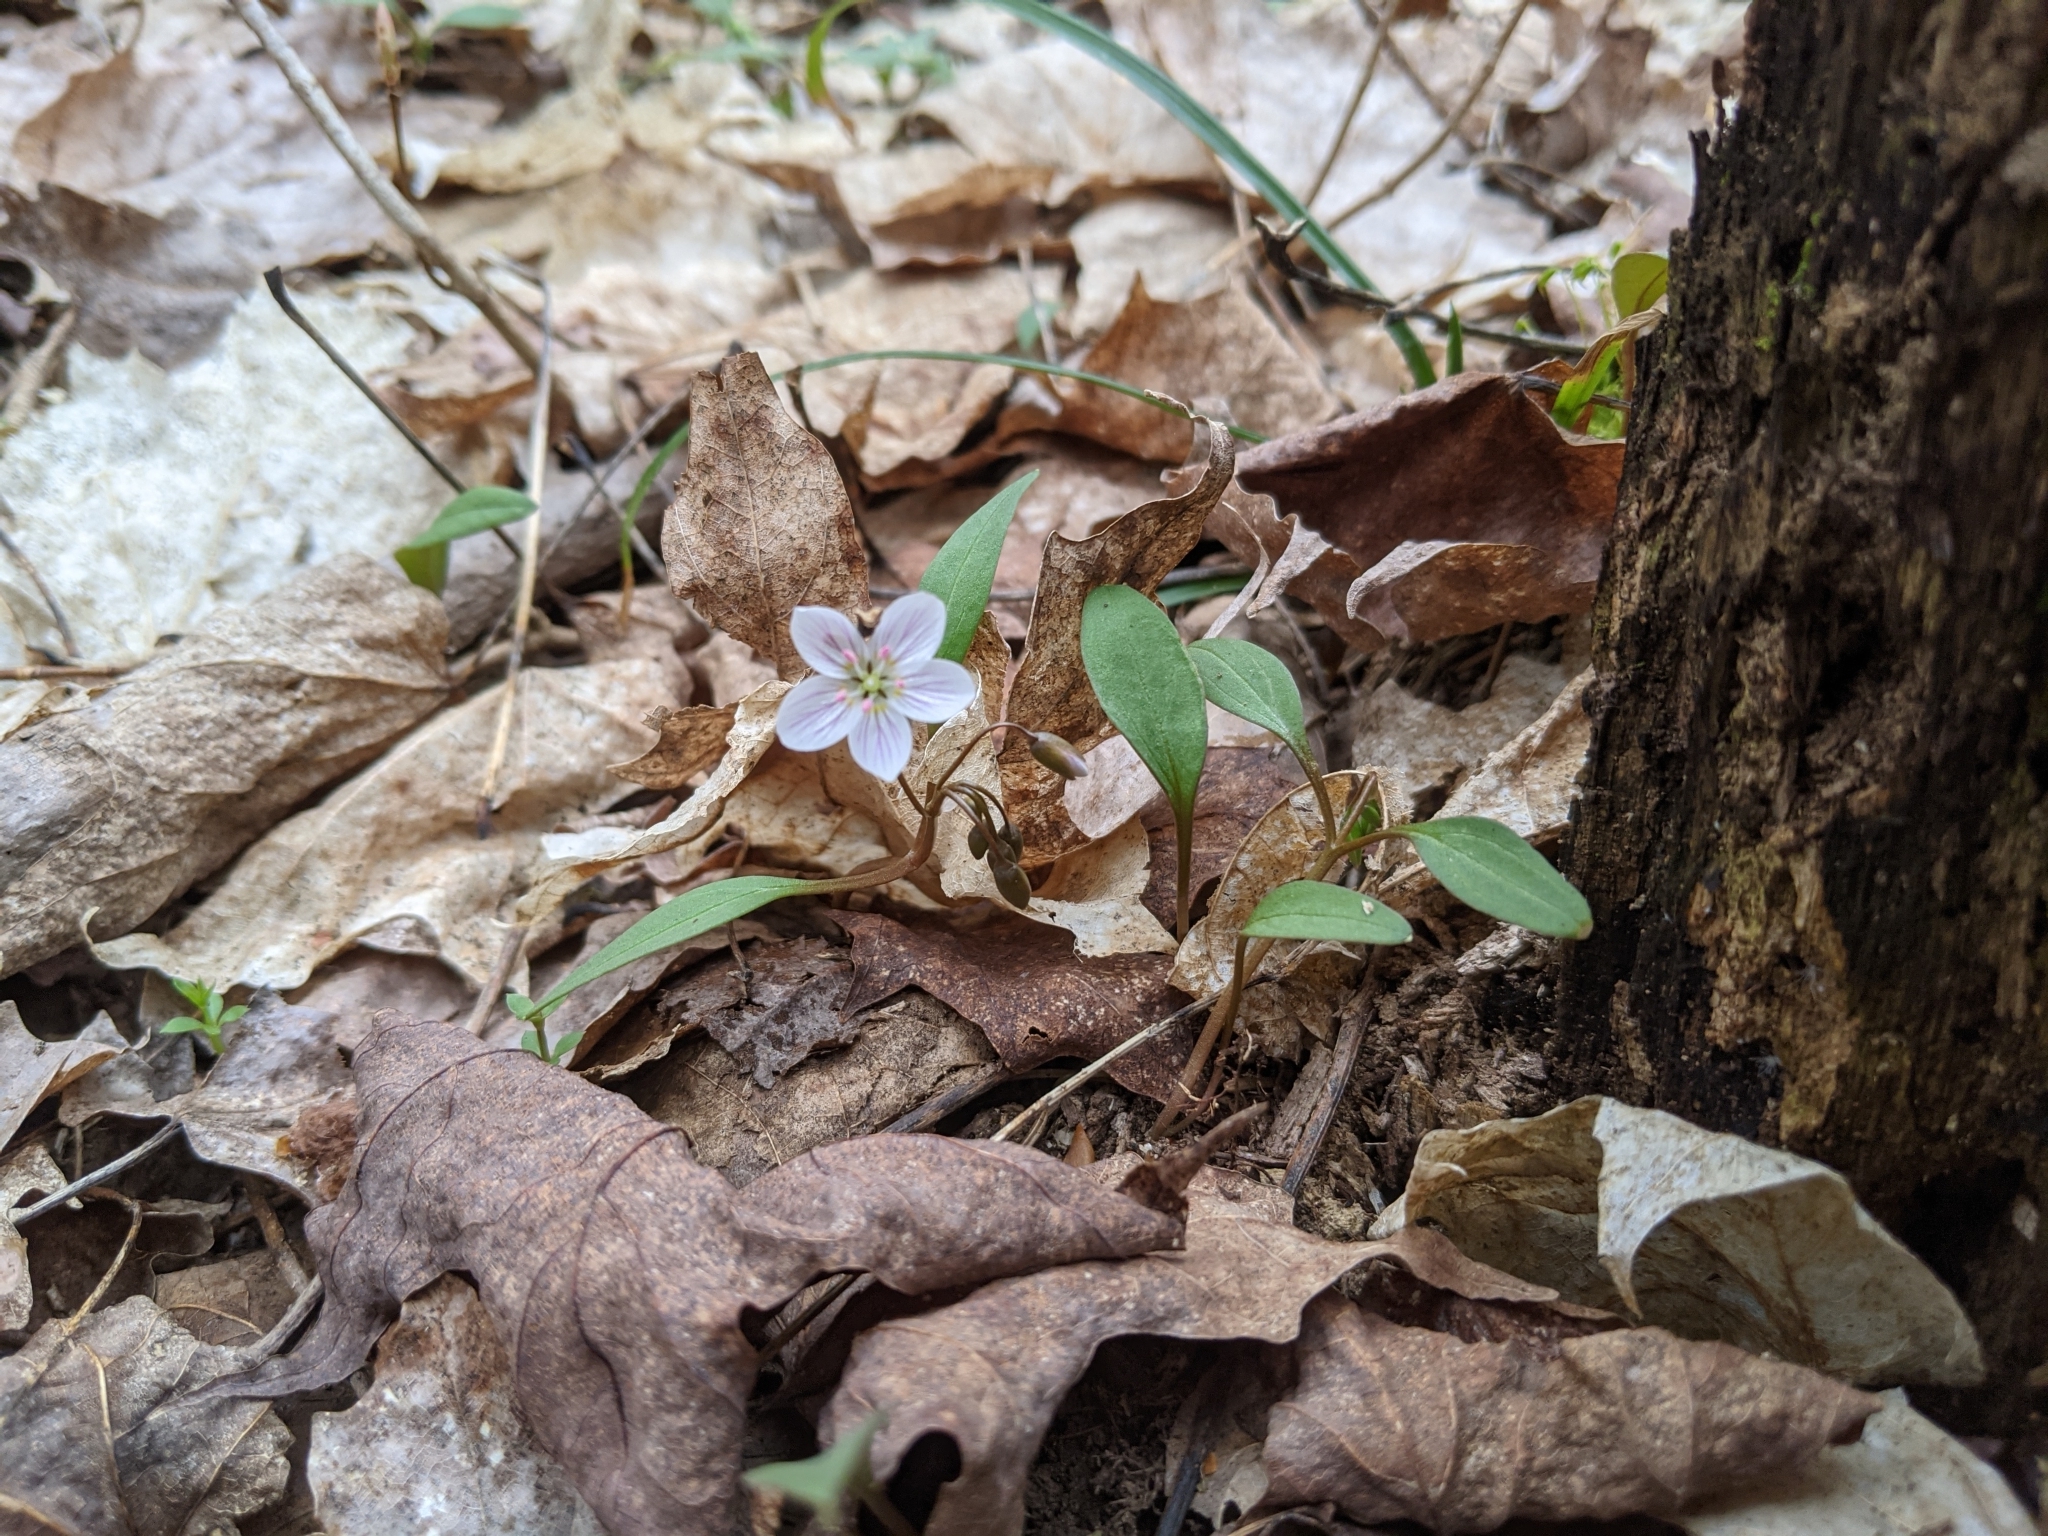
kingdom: Plantae
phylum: Tracheophyta
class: Magnoliopsida
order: Caryophyllales
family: Montiaceae
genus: Claytonia
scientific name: Claytonia caroliniana
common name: Carolina spring beauty
